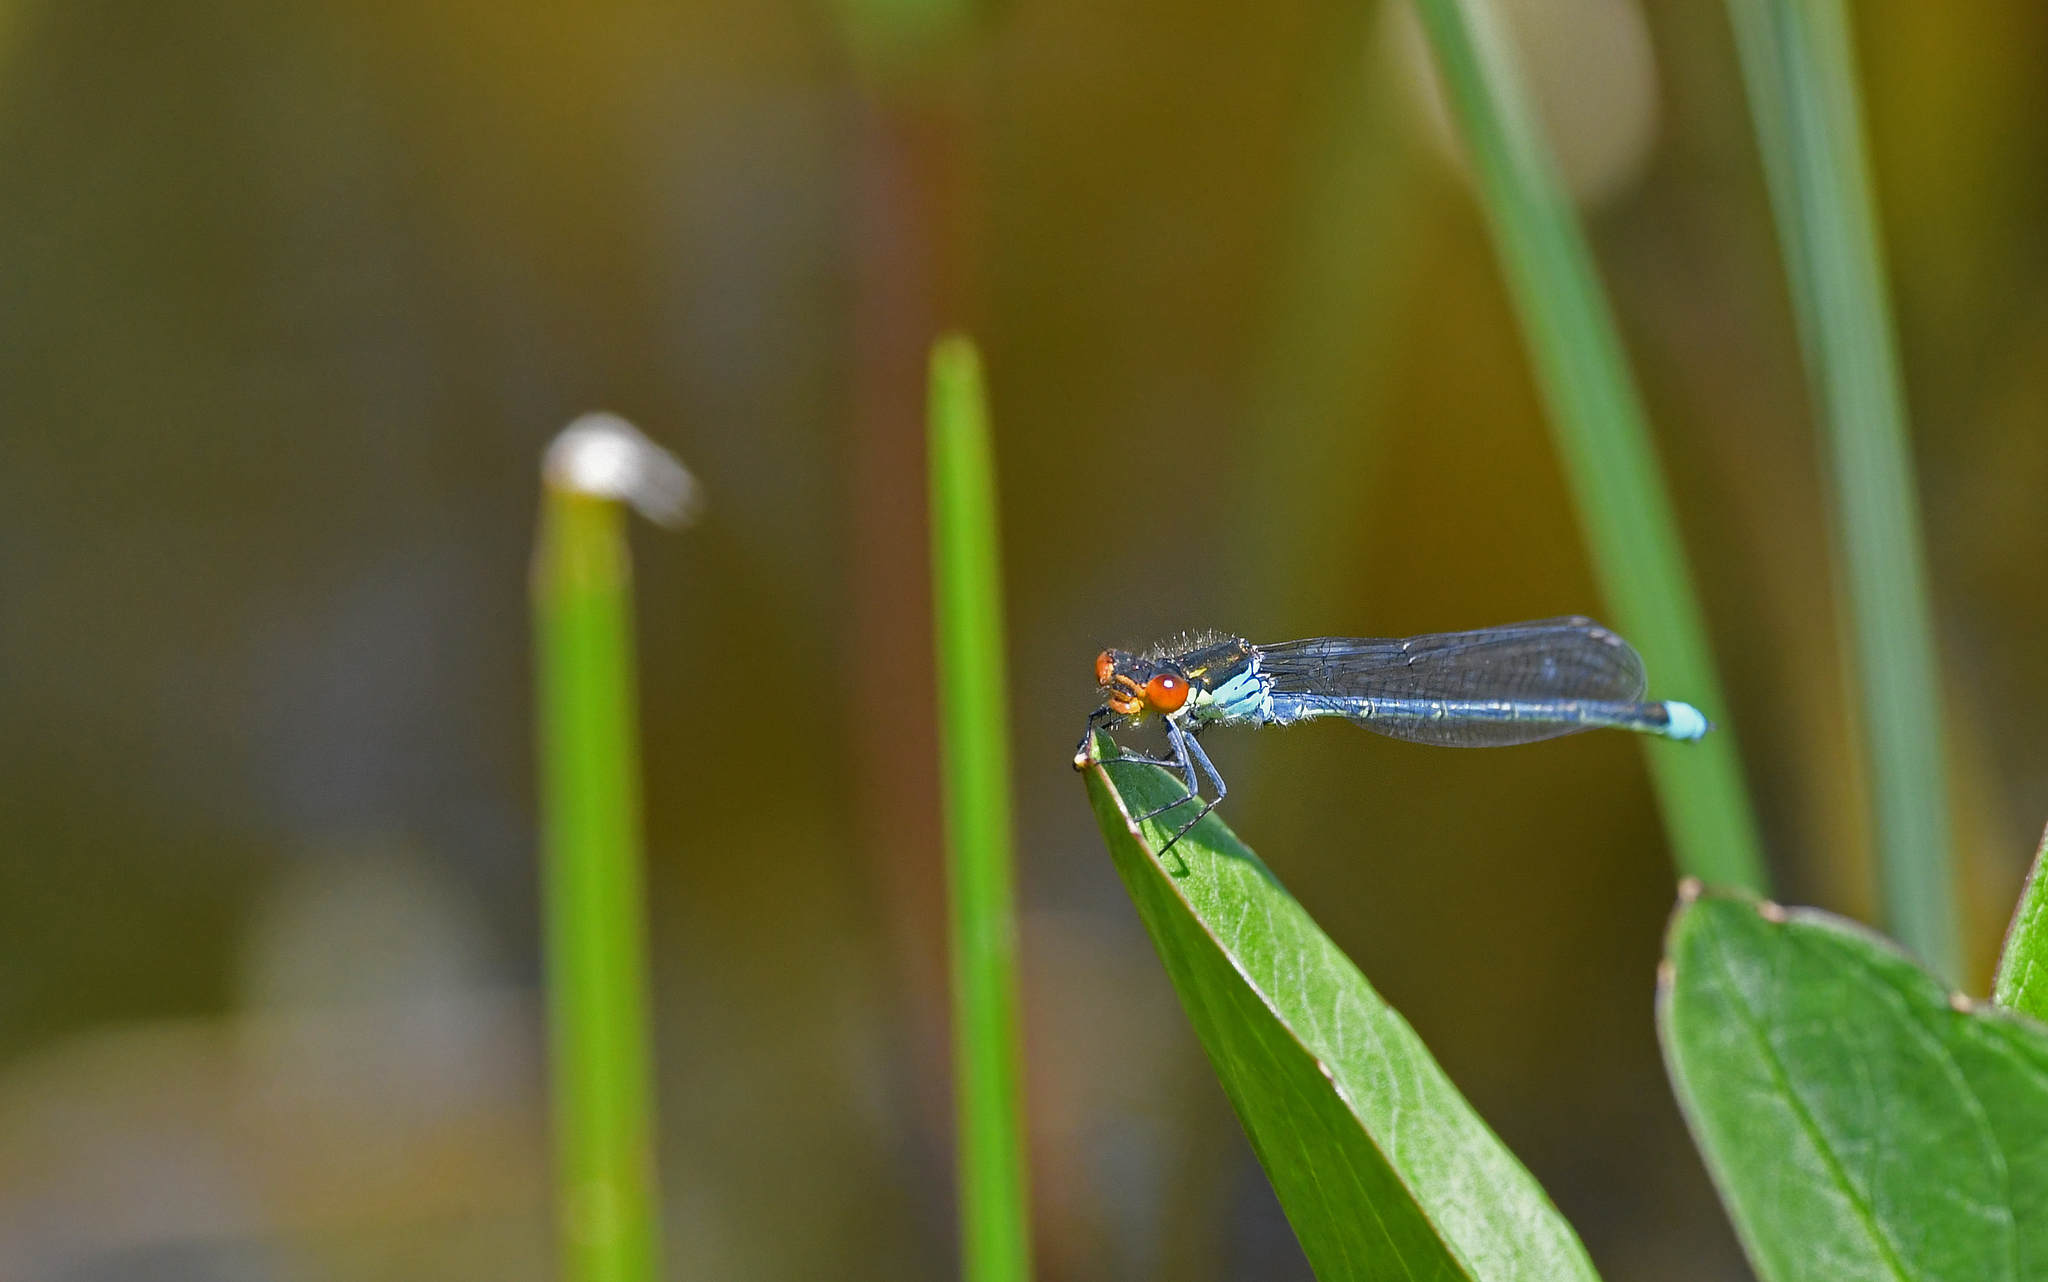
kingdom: Animalia
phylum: Arthropoda
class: Insecta
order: Odonata
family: Coenagrionidae
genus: Erythromma
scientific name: Erythromma najas
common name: Red-eyed damselfly
